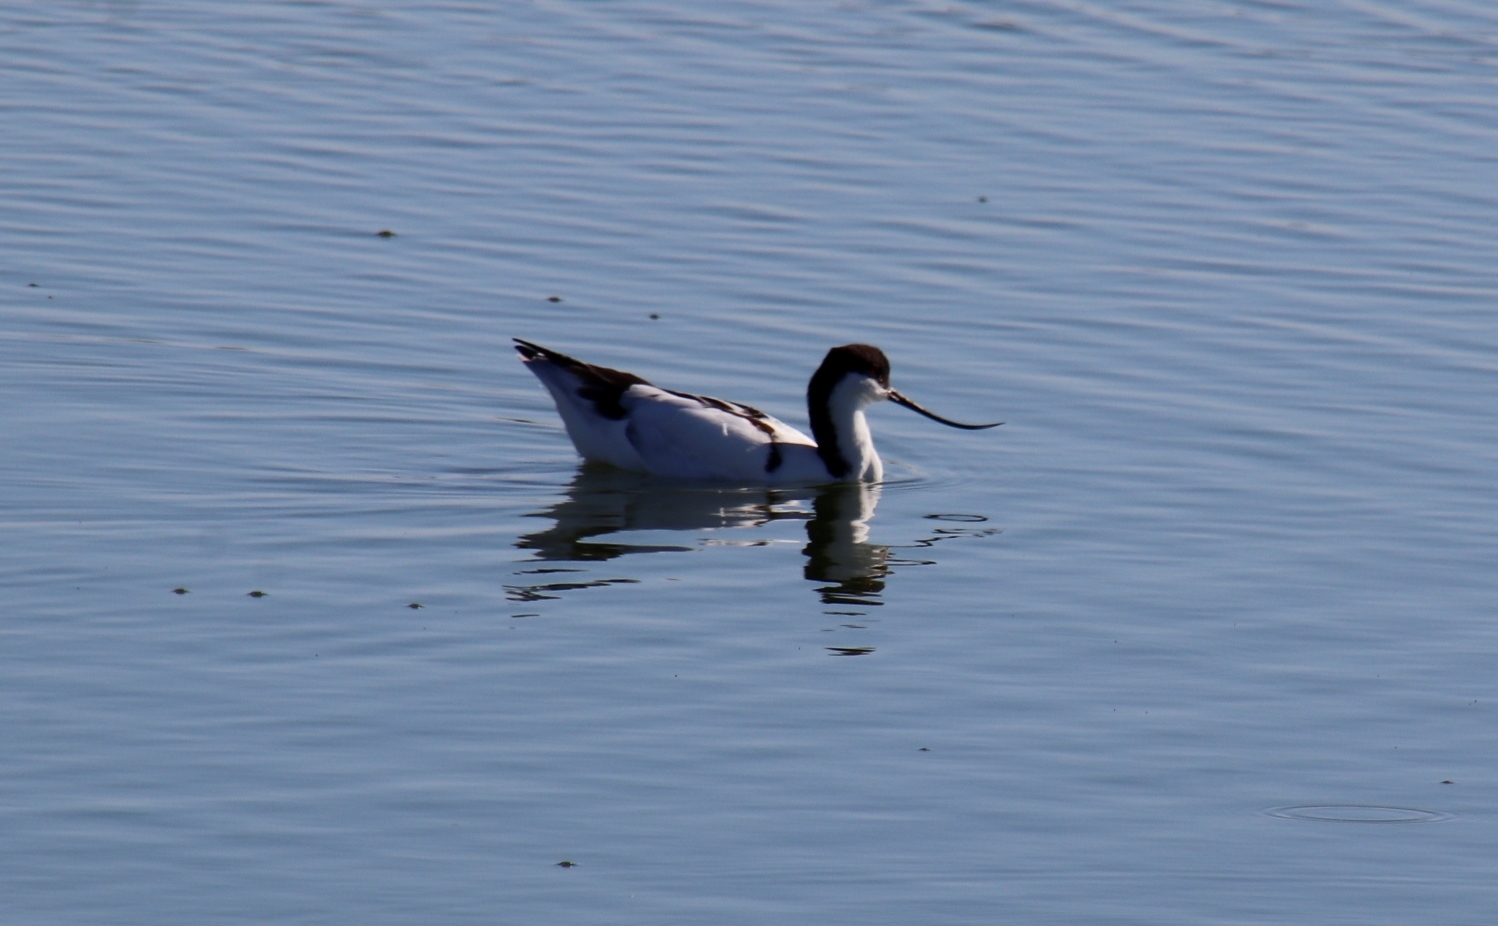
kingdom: Animalia
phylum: Chordata
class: Aves
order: Charadriiformes
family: Recurvirostridae
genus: Recurvirostra
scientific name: Recurvirostra avosetta
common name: Pied avocet
